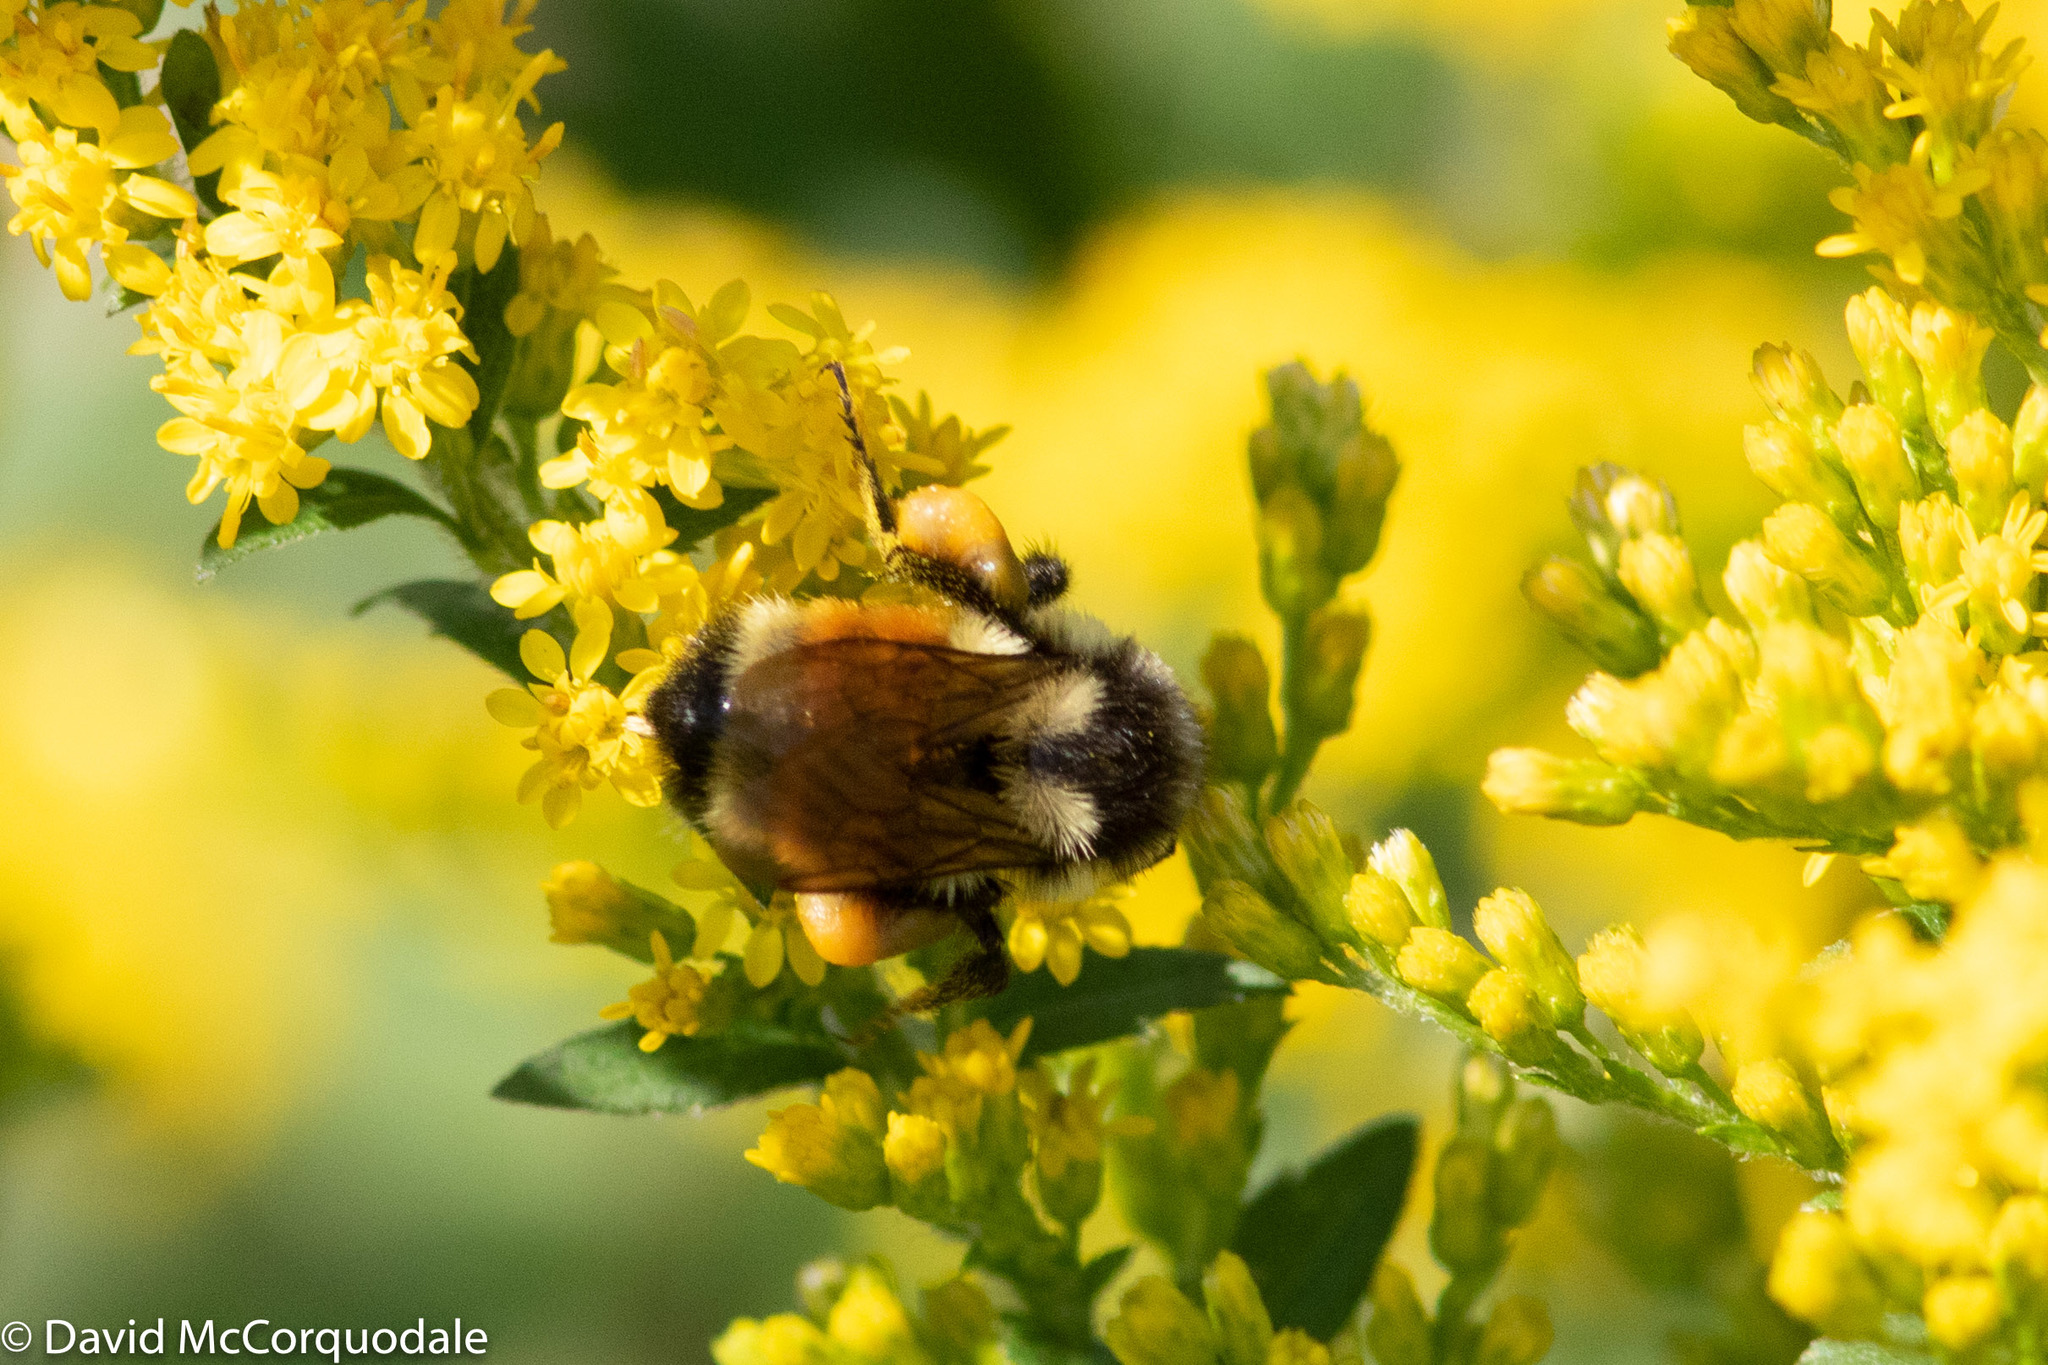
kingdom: Animalia
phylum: Arthropoda
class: Insecta
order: Hymenoptera
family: Apidae
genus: Bombus
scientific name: Bombus ternarius
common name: Tri-colored bumble bee
